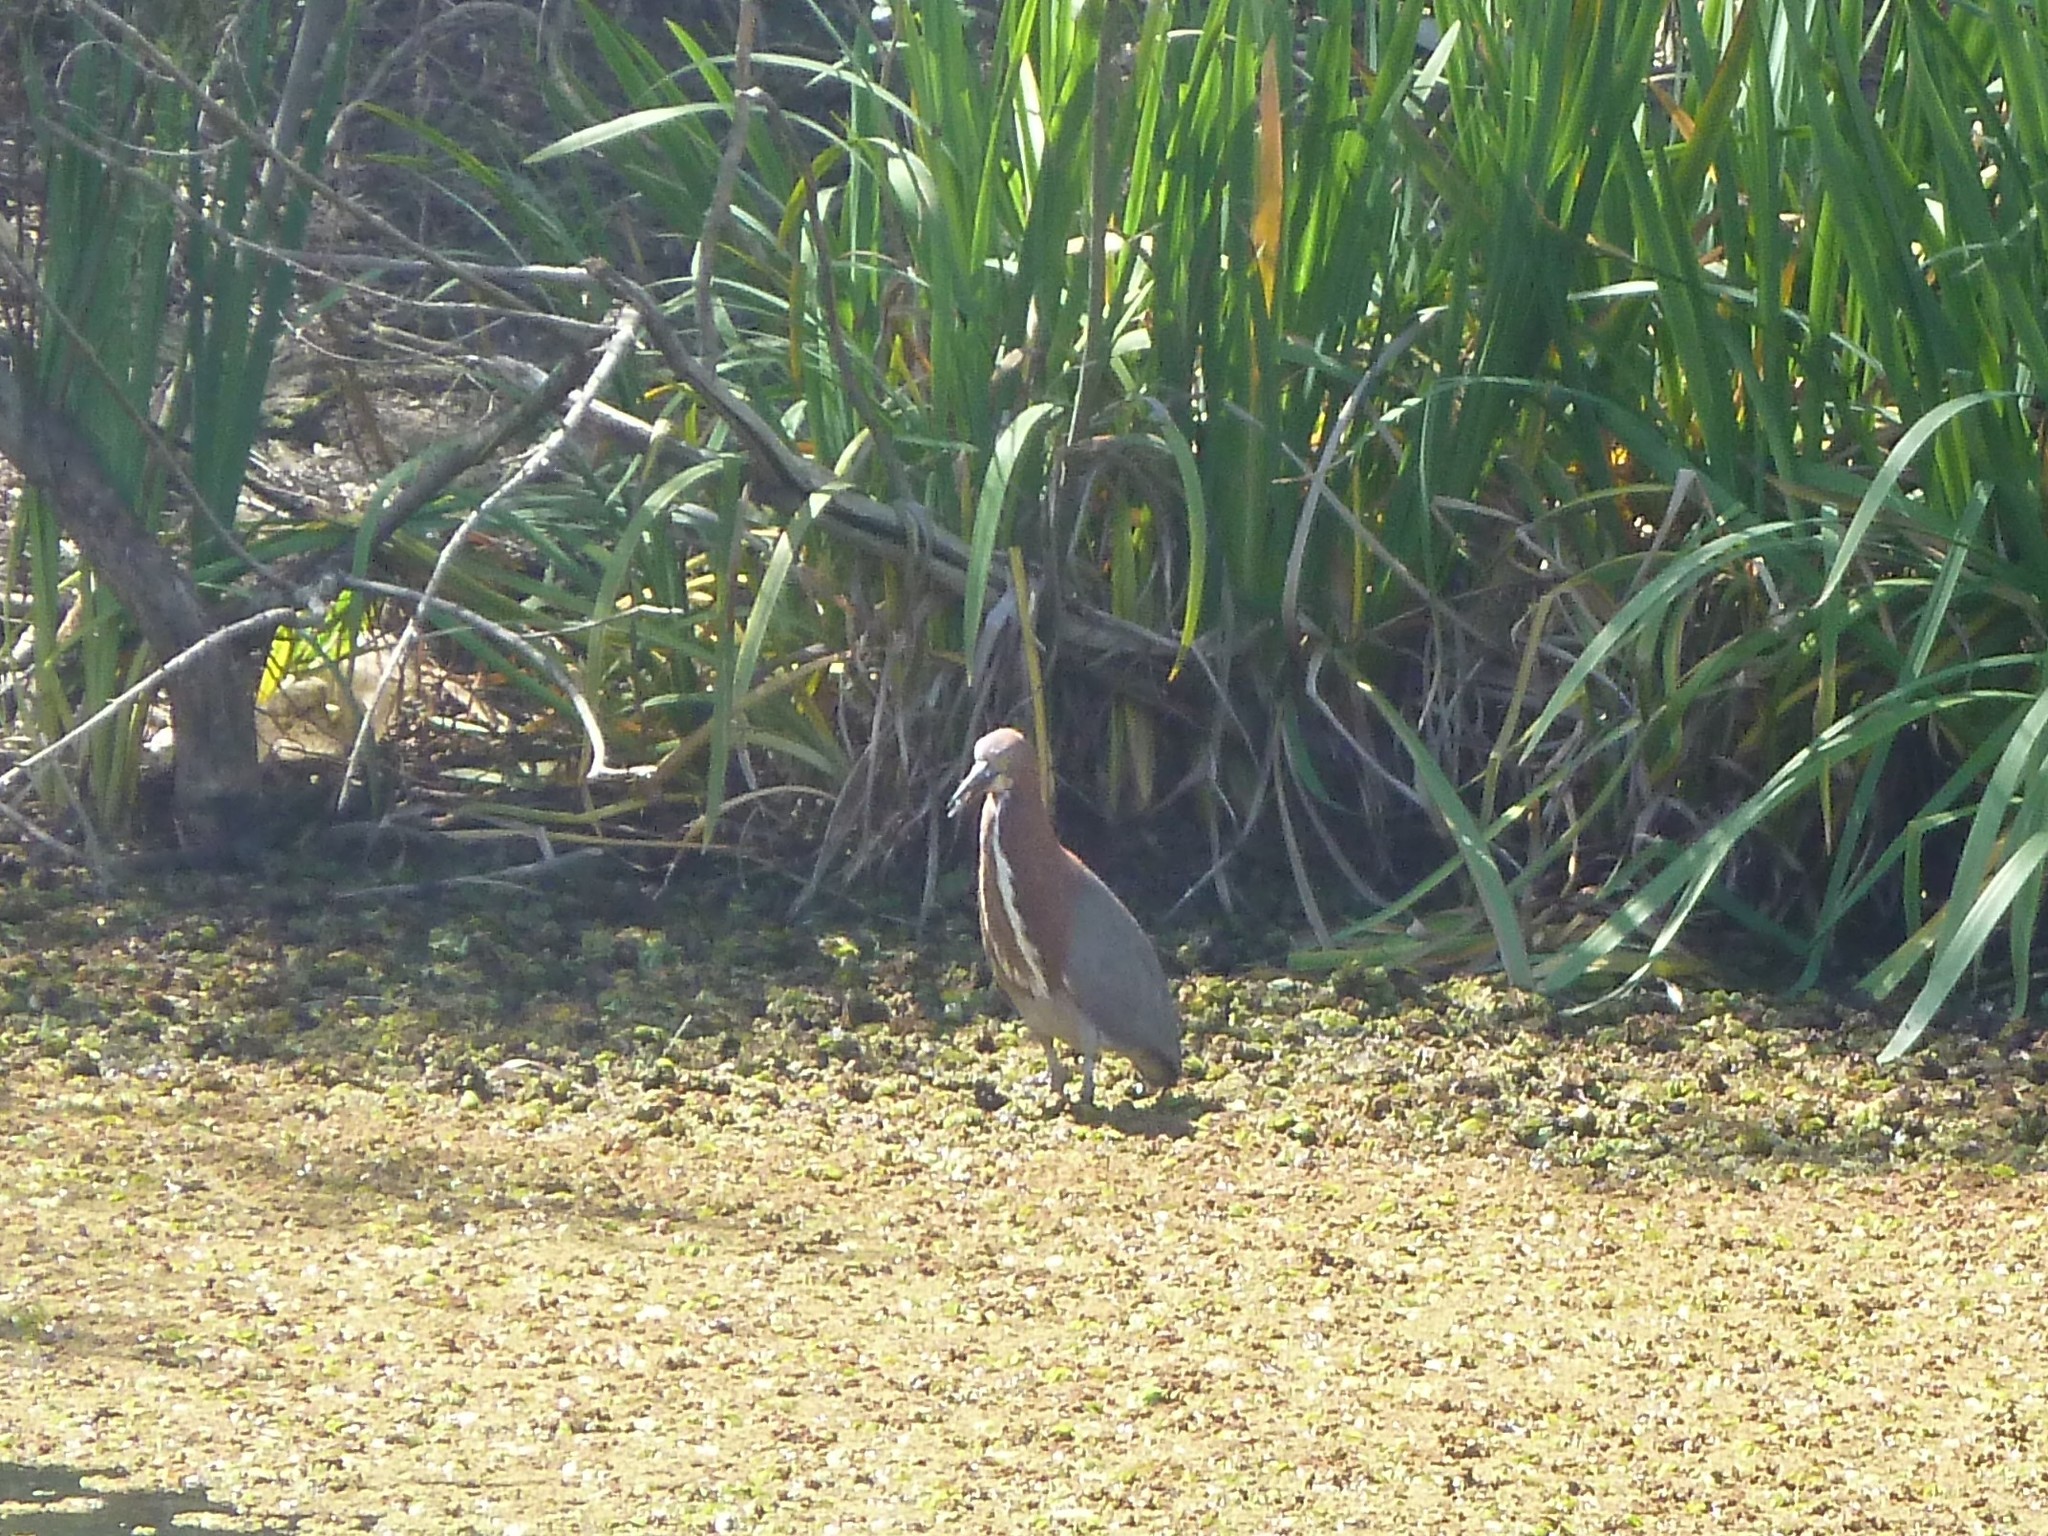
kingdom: Animalia
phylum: Chordata
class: Aves
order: Pelecaniformes
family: Ardeidae
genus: Tigrisoma
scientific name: Tigrisoma lineatum
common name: Rufescent tiger-heron
